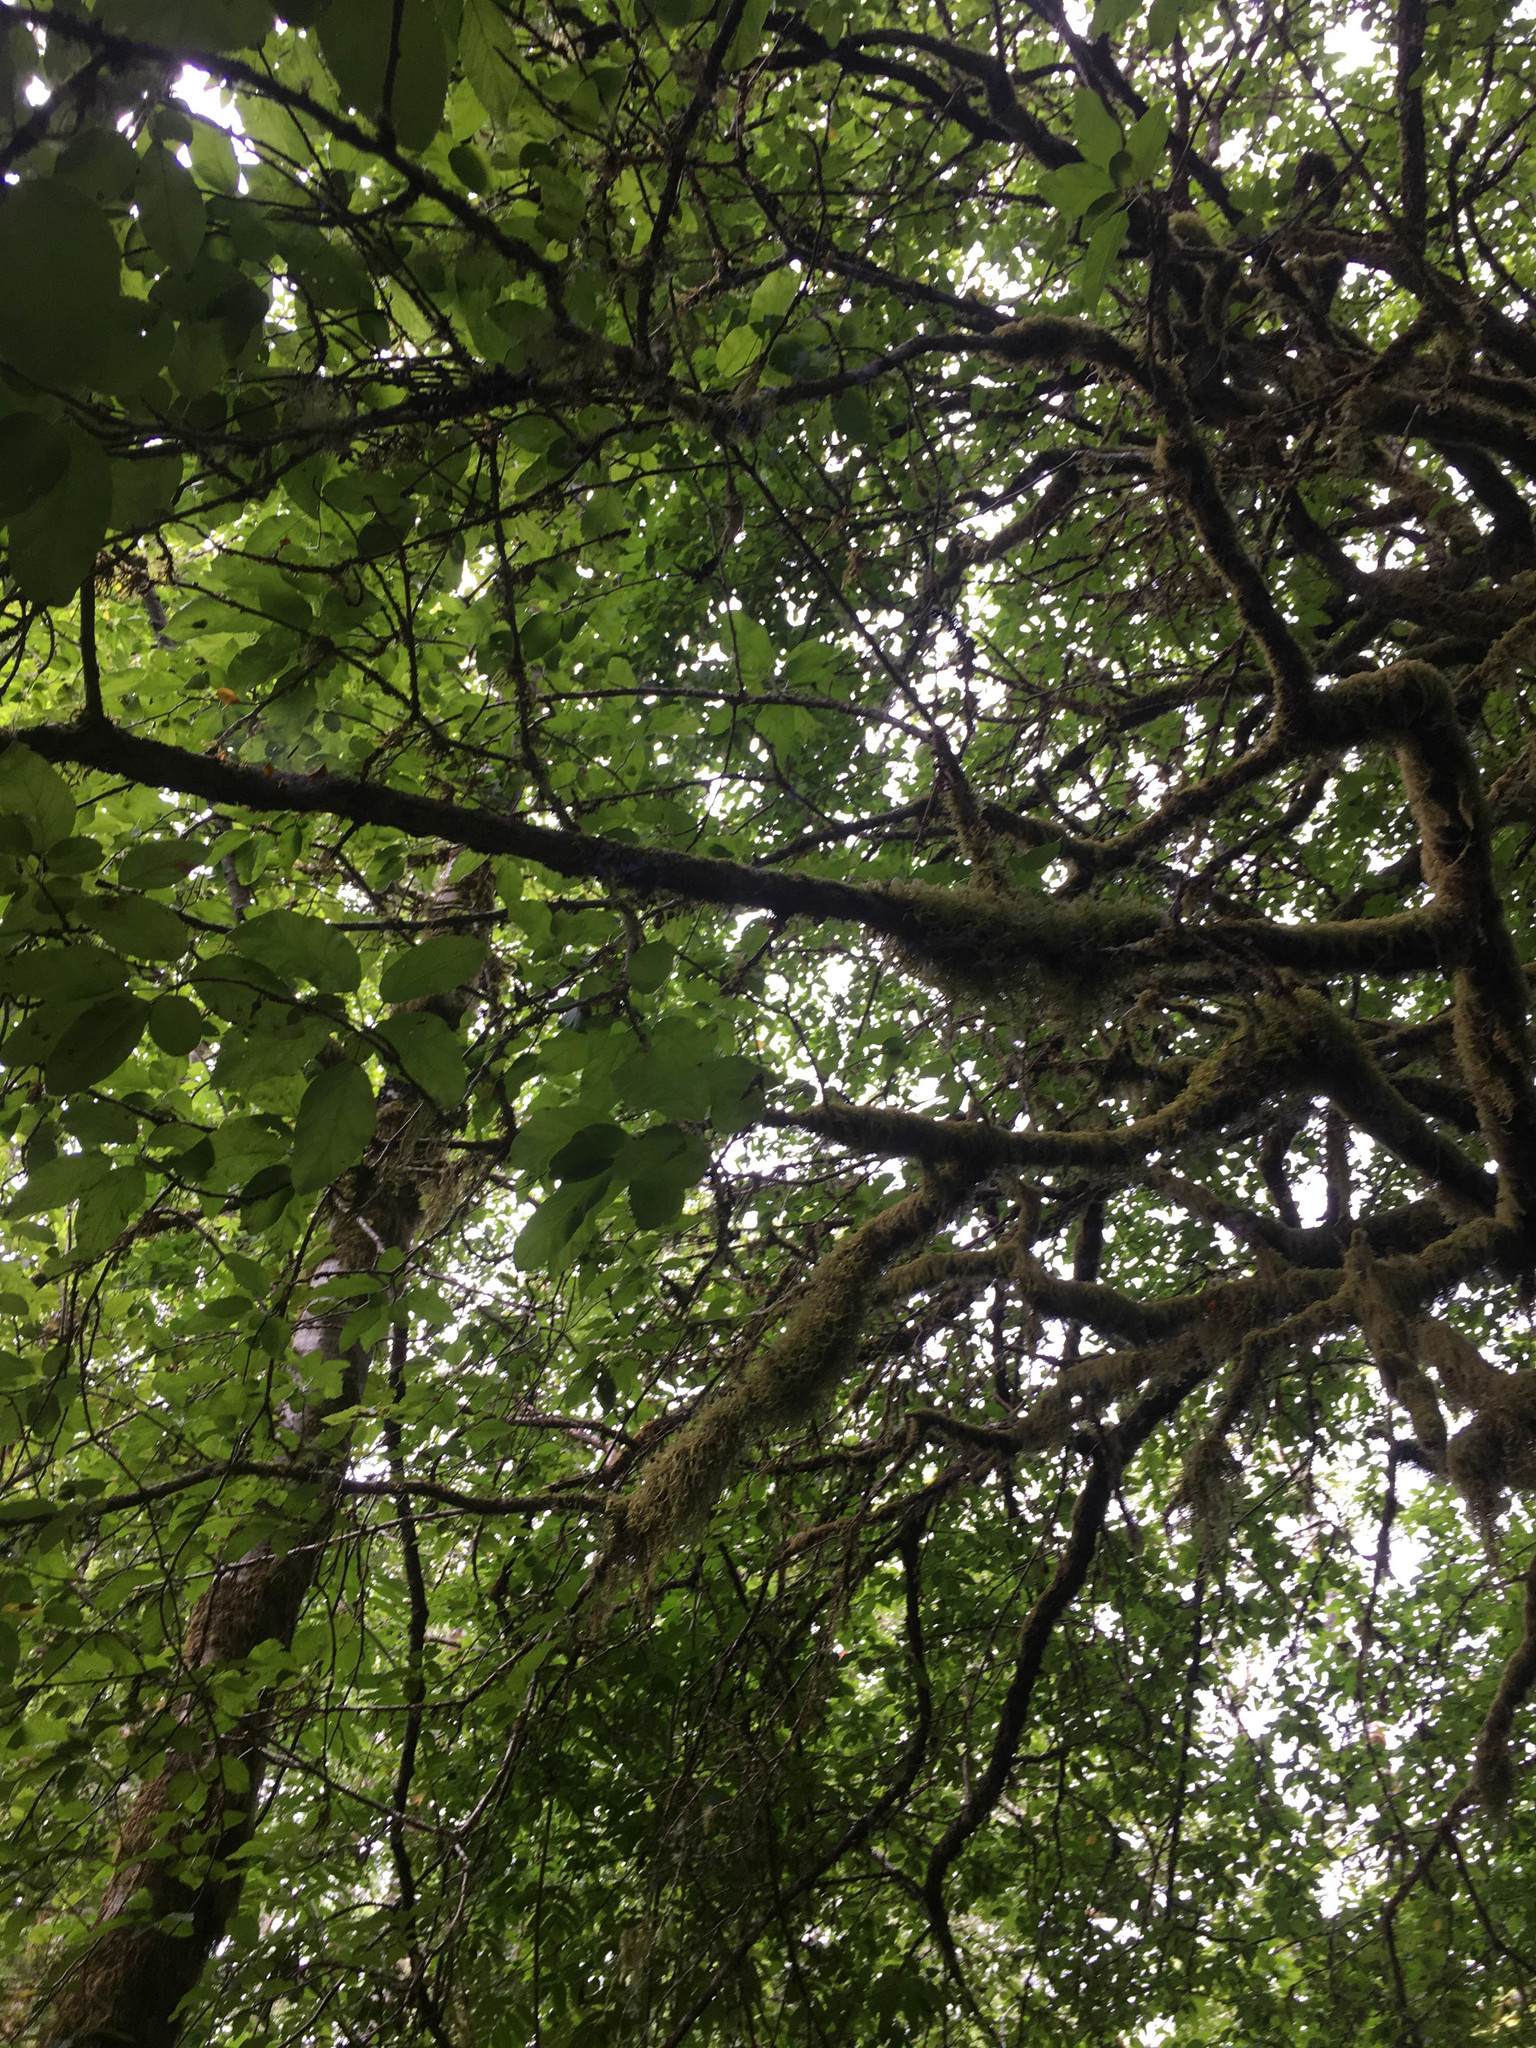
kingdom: Plantae
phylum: Tracheophyta
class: Magnoliopsida
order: Rosales
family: Rosaceae
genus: Malus
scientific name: Malus fusca
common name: Oregon crab apple
